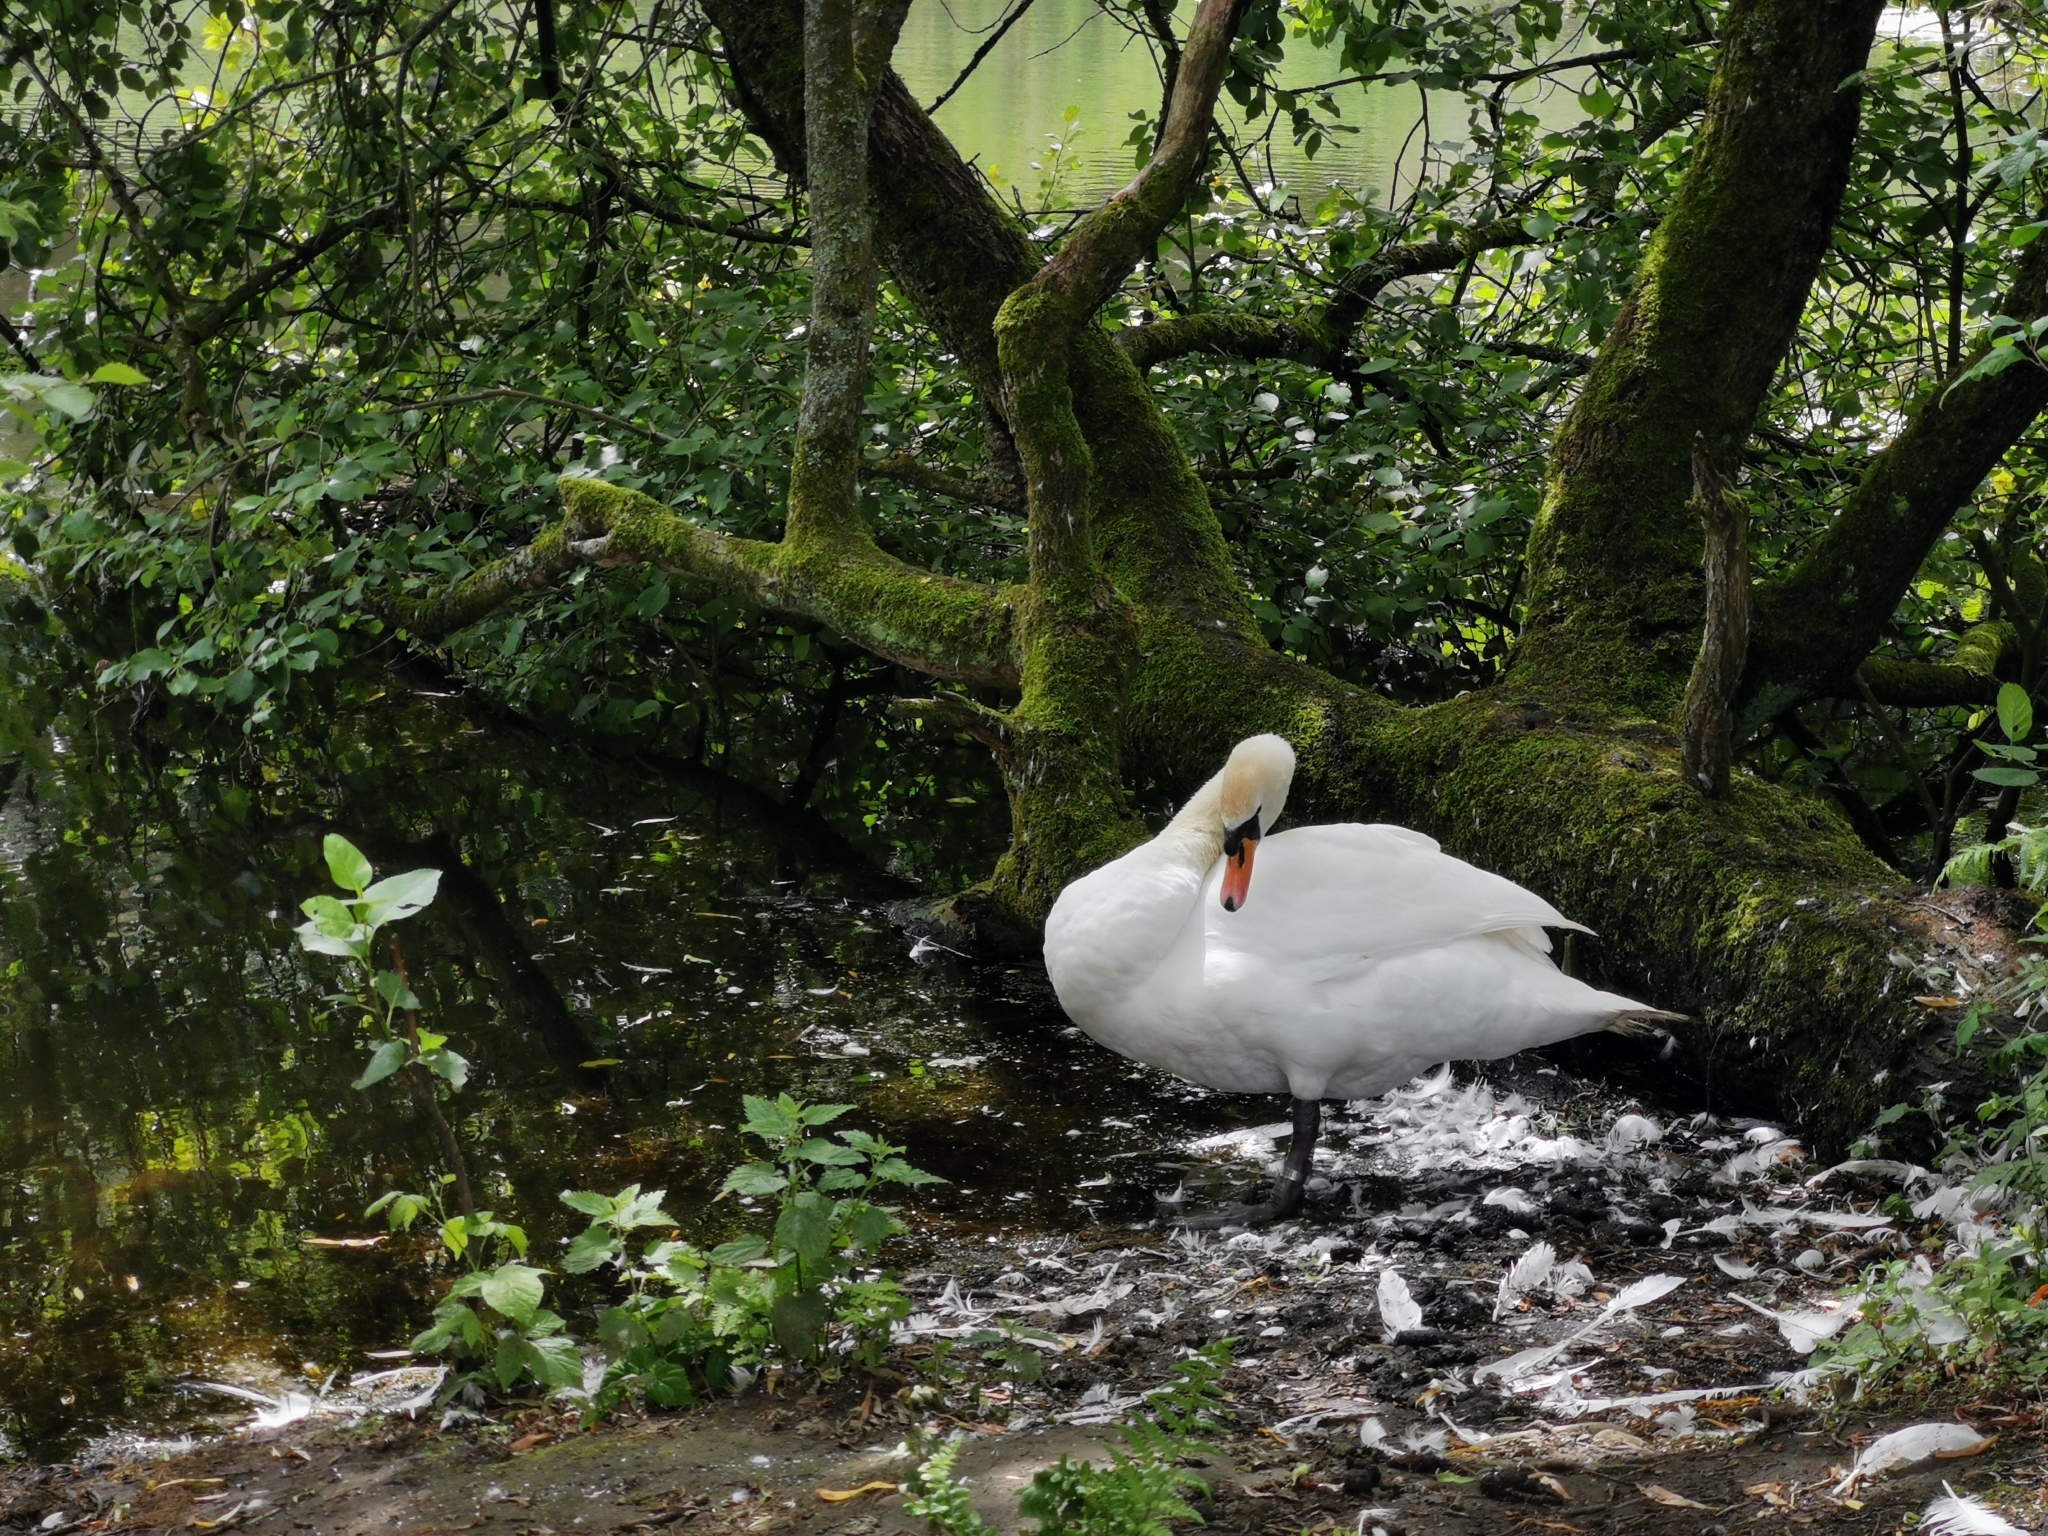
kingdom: Animalia
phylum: Chordata
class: Aves
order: Anseriformes
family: Anatidae
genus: Cygnus
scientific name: Cygnus olor
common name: Mute swan
